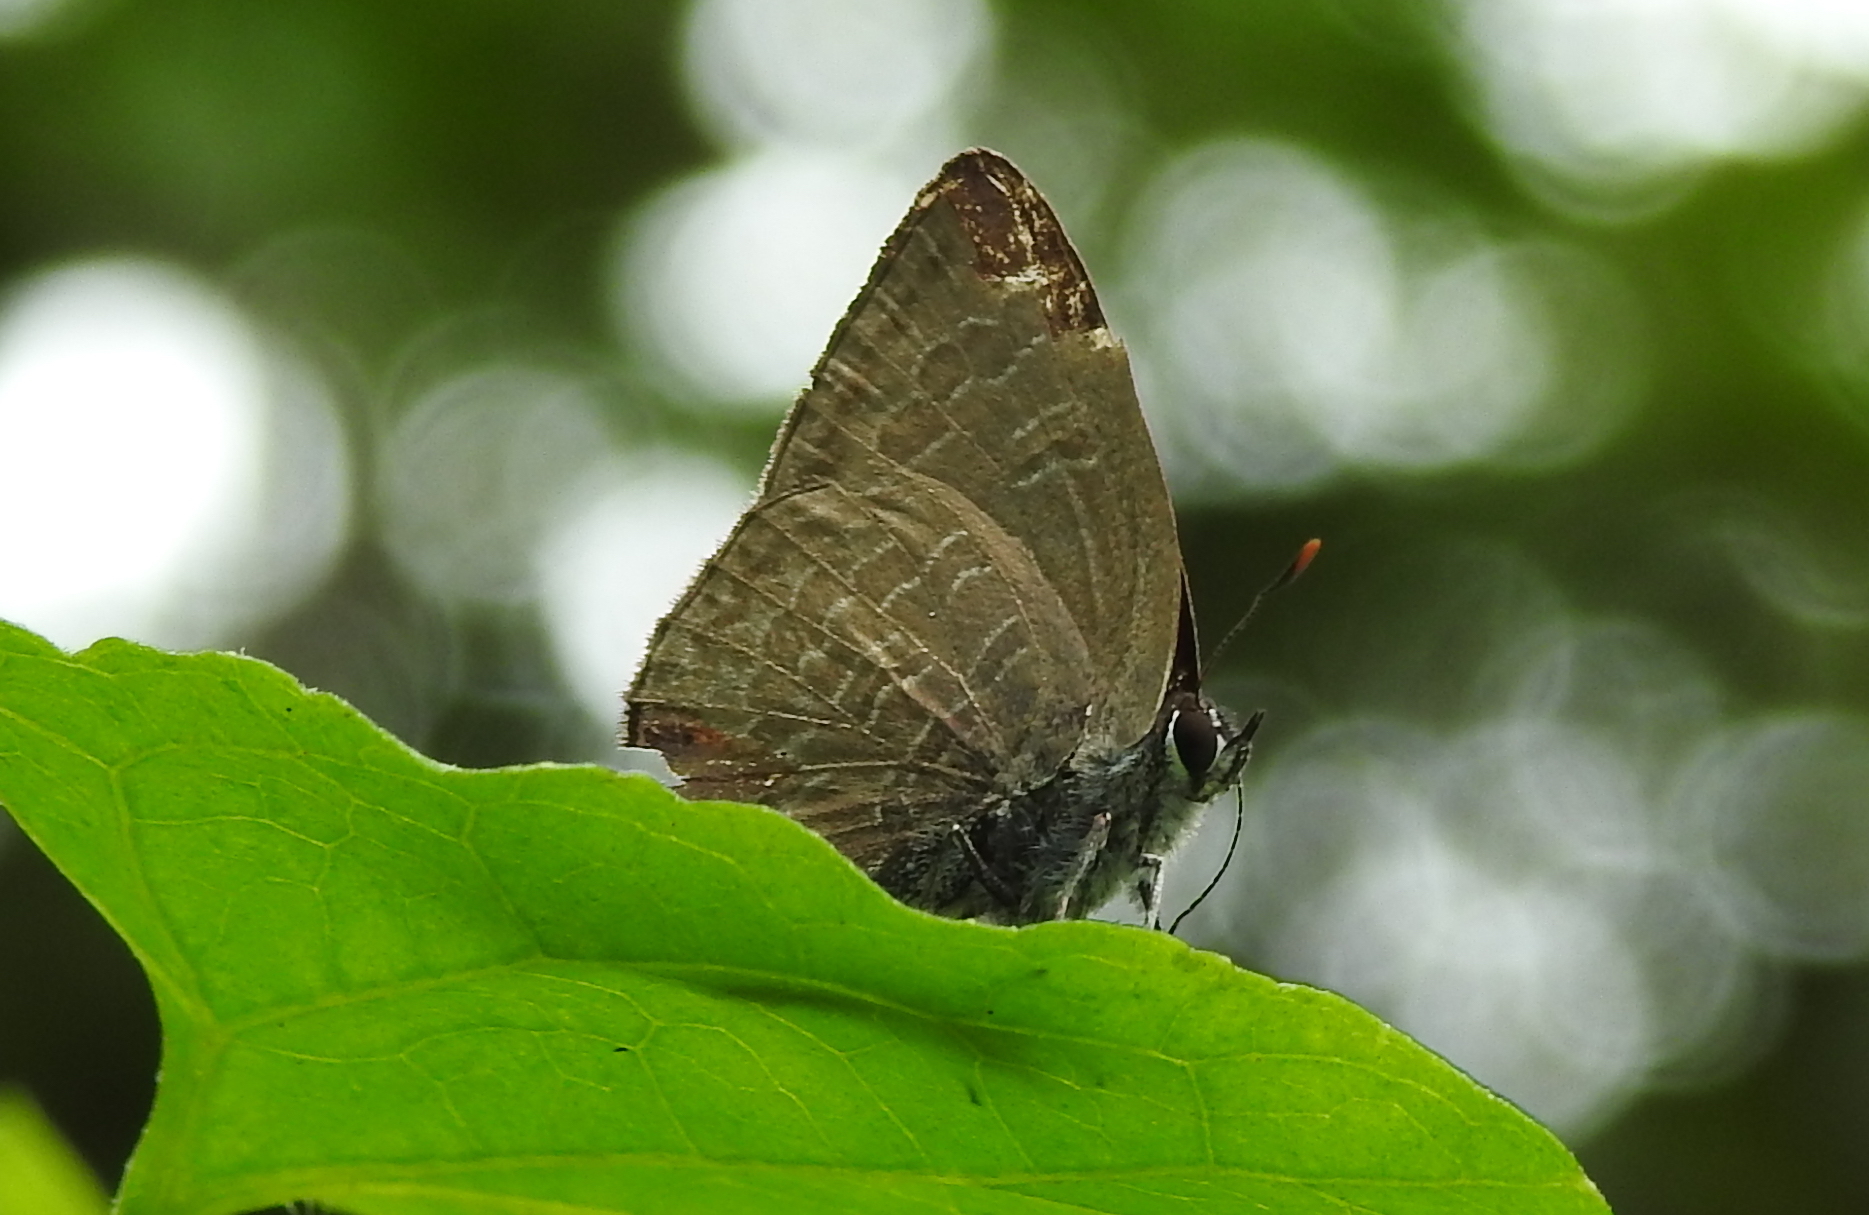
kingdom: Animalia
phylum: Arthropoda
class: Insecta
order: Lepidoptera
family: Lycaenidae
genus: Anthene
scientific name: Anthene emolus
